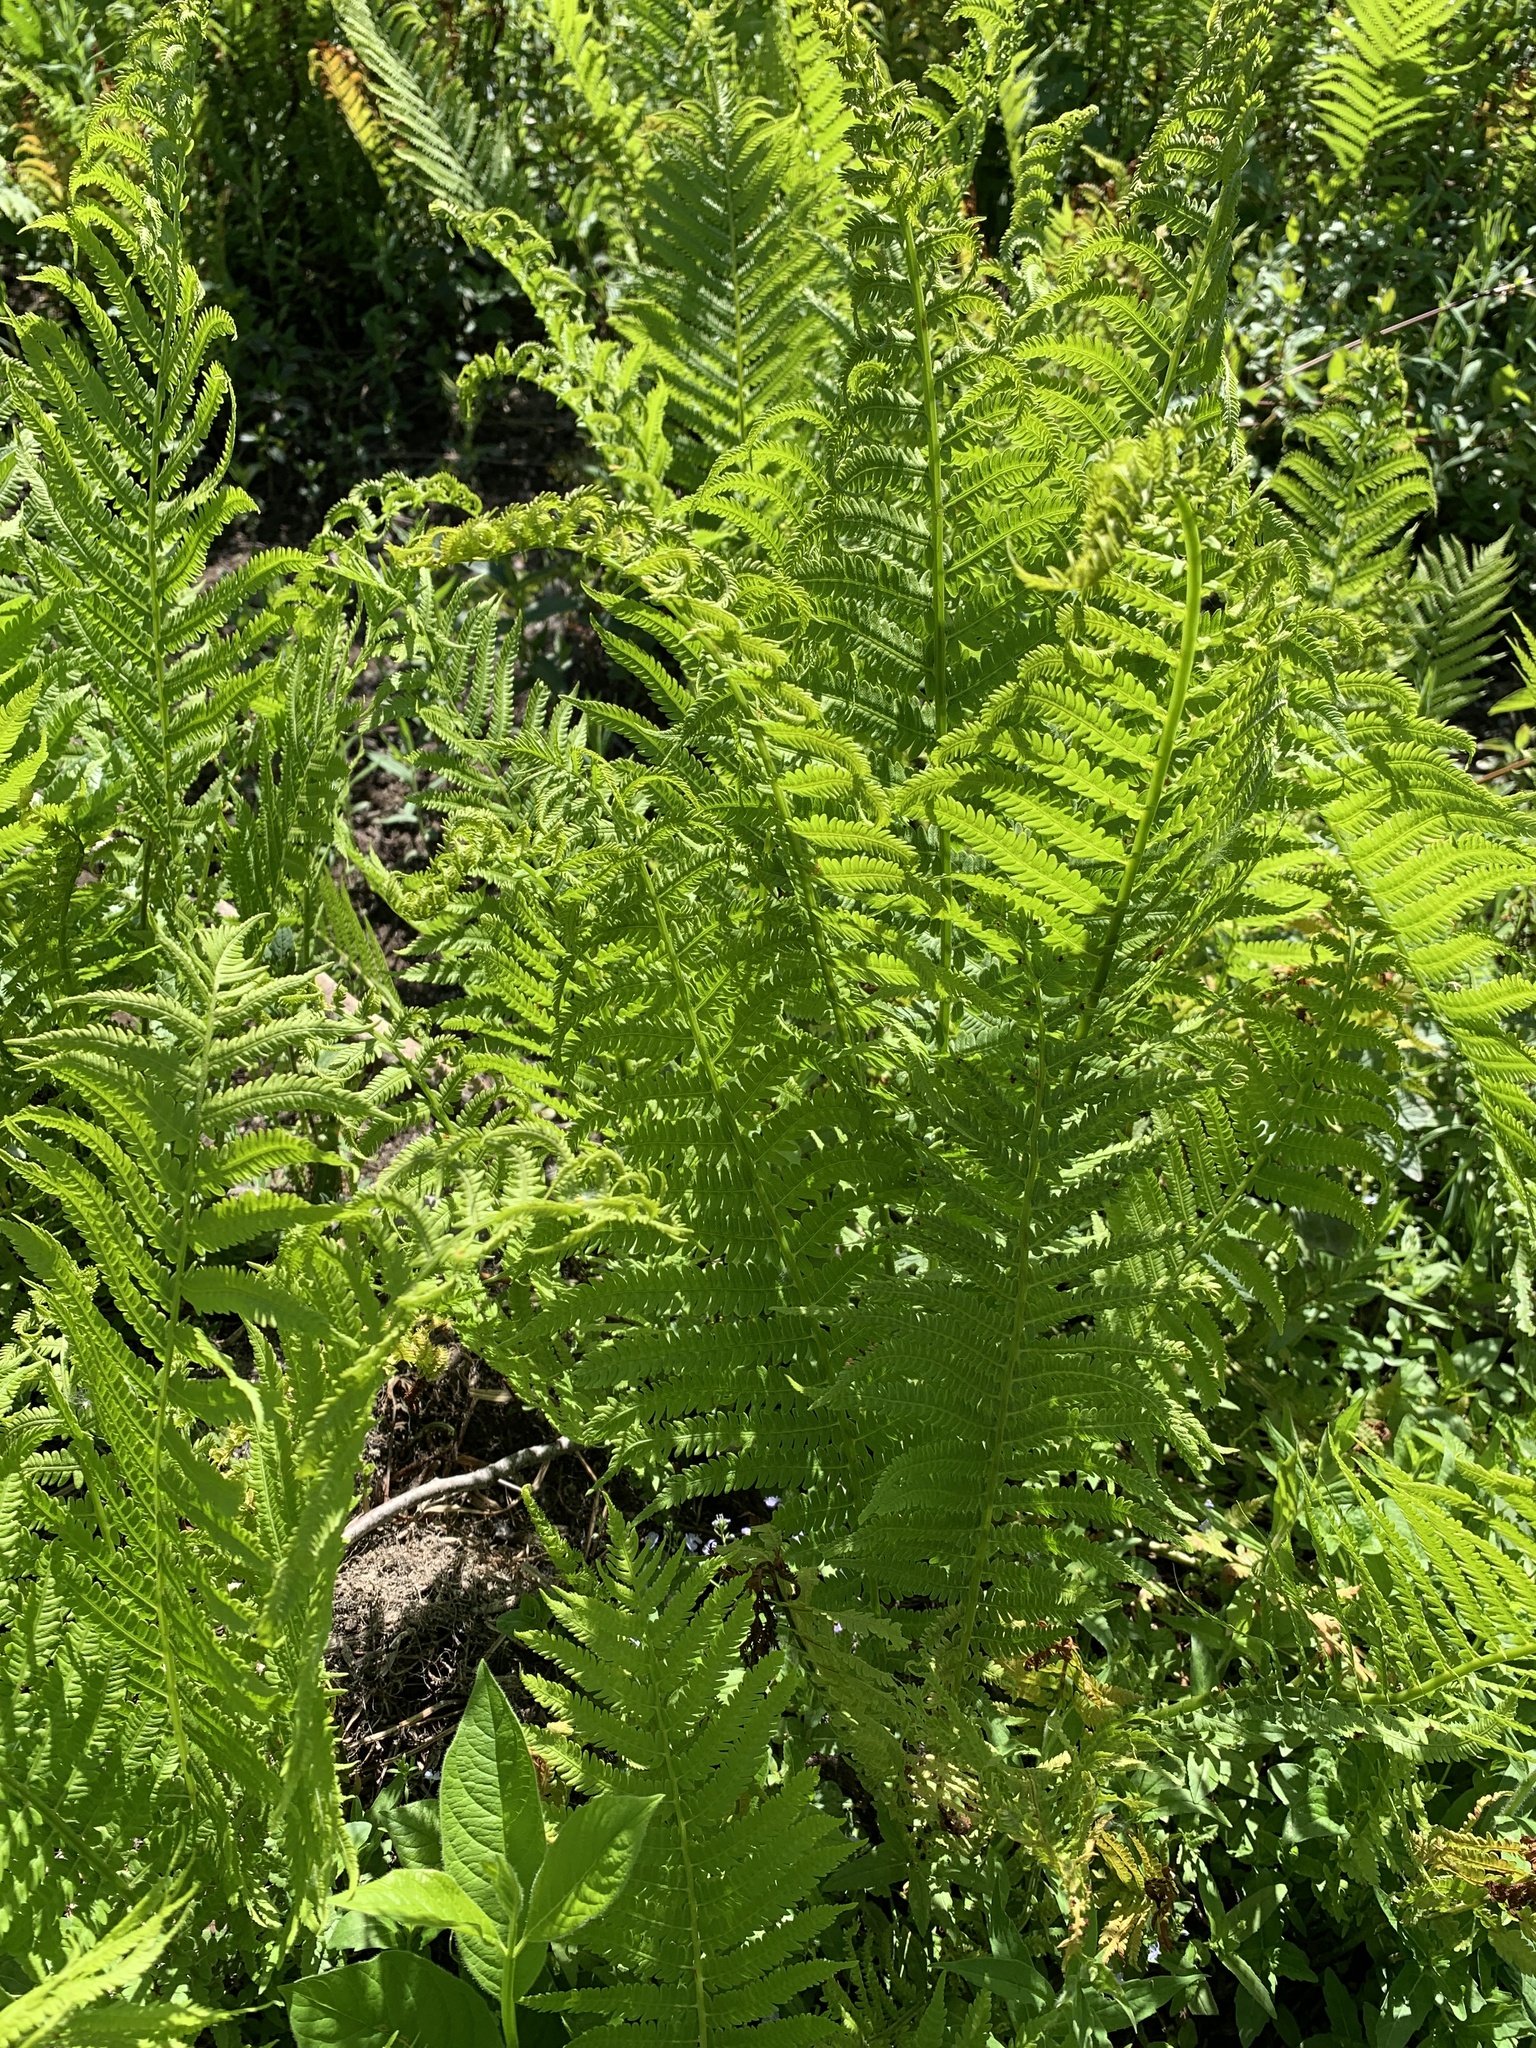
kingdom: Plantae
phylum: Tracheophyta
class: Polypodiopsida
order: Polypodiales
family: Onocleaceae
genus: Matteuccia
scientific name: Matteuccia struthiopteris
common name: Ostrich fern
